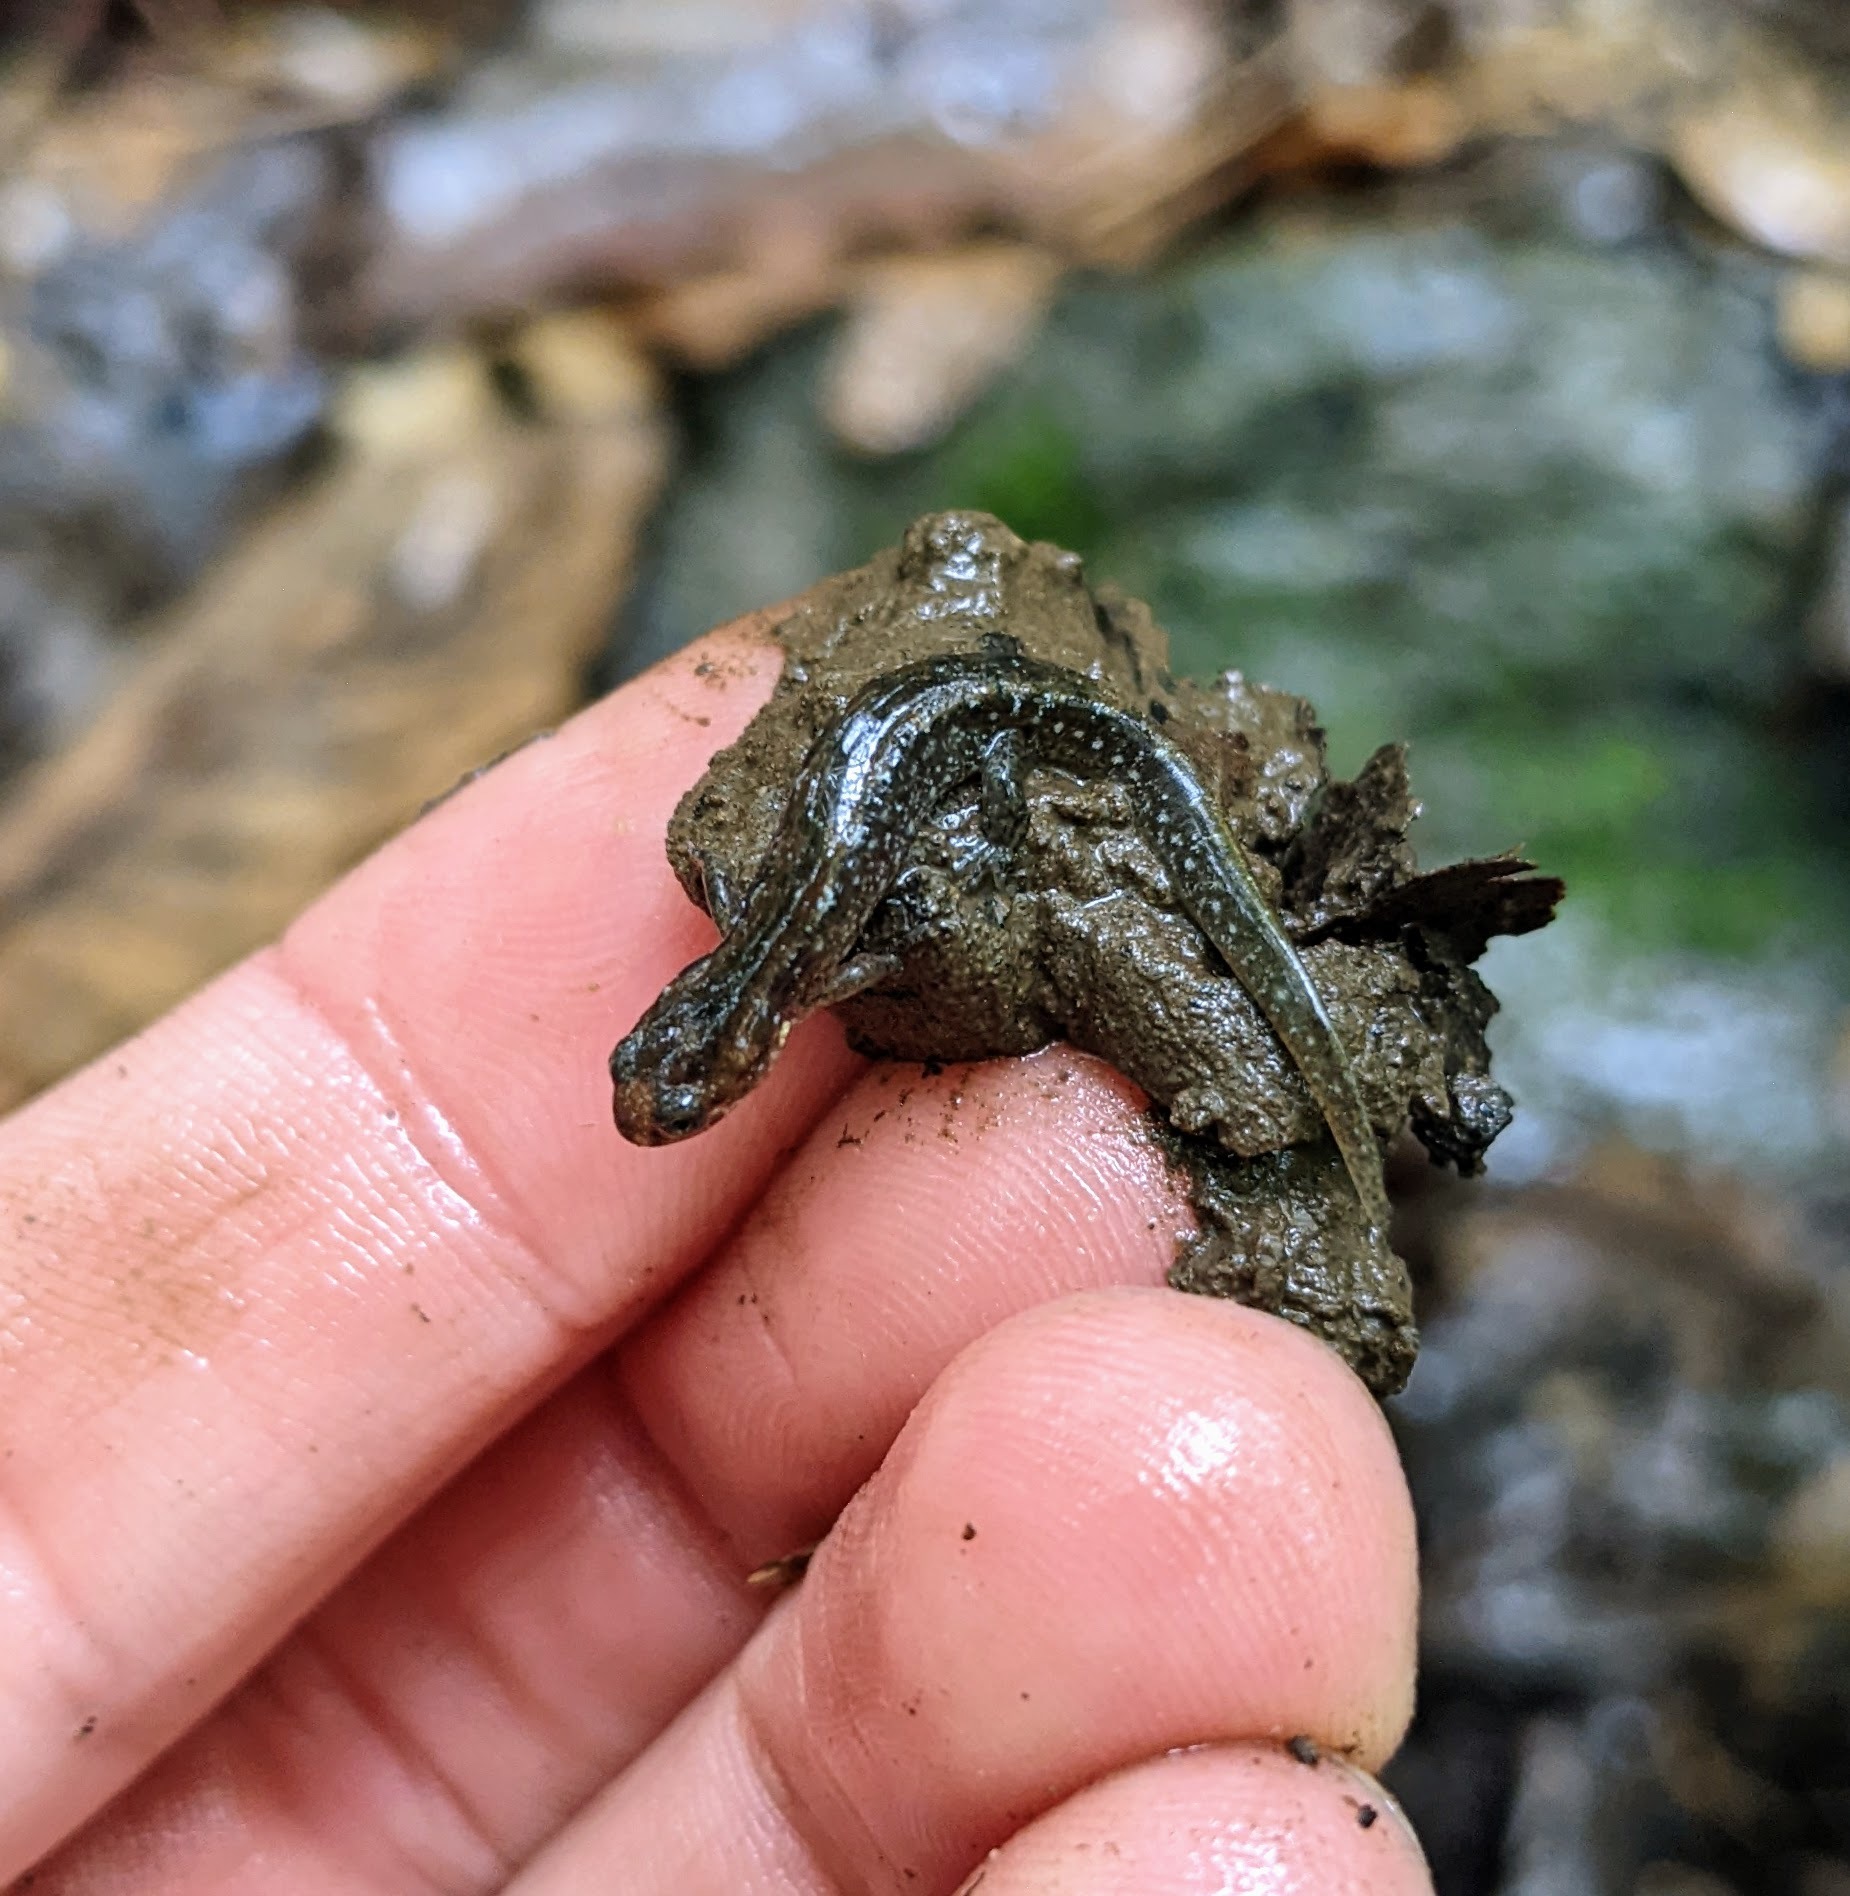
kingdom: Animalia
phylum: Chordata
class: Amphibia
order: Caudata
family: Plethodontidae
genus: Desmognathus
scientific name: Desmognathus fuscus
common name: Northern dusky salamander
